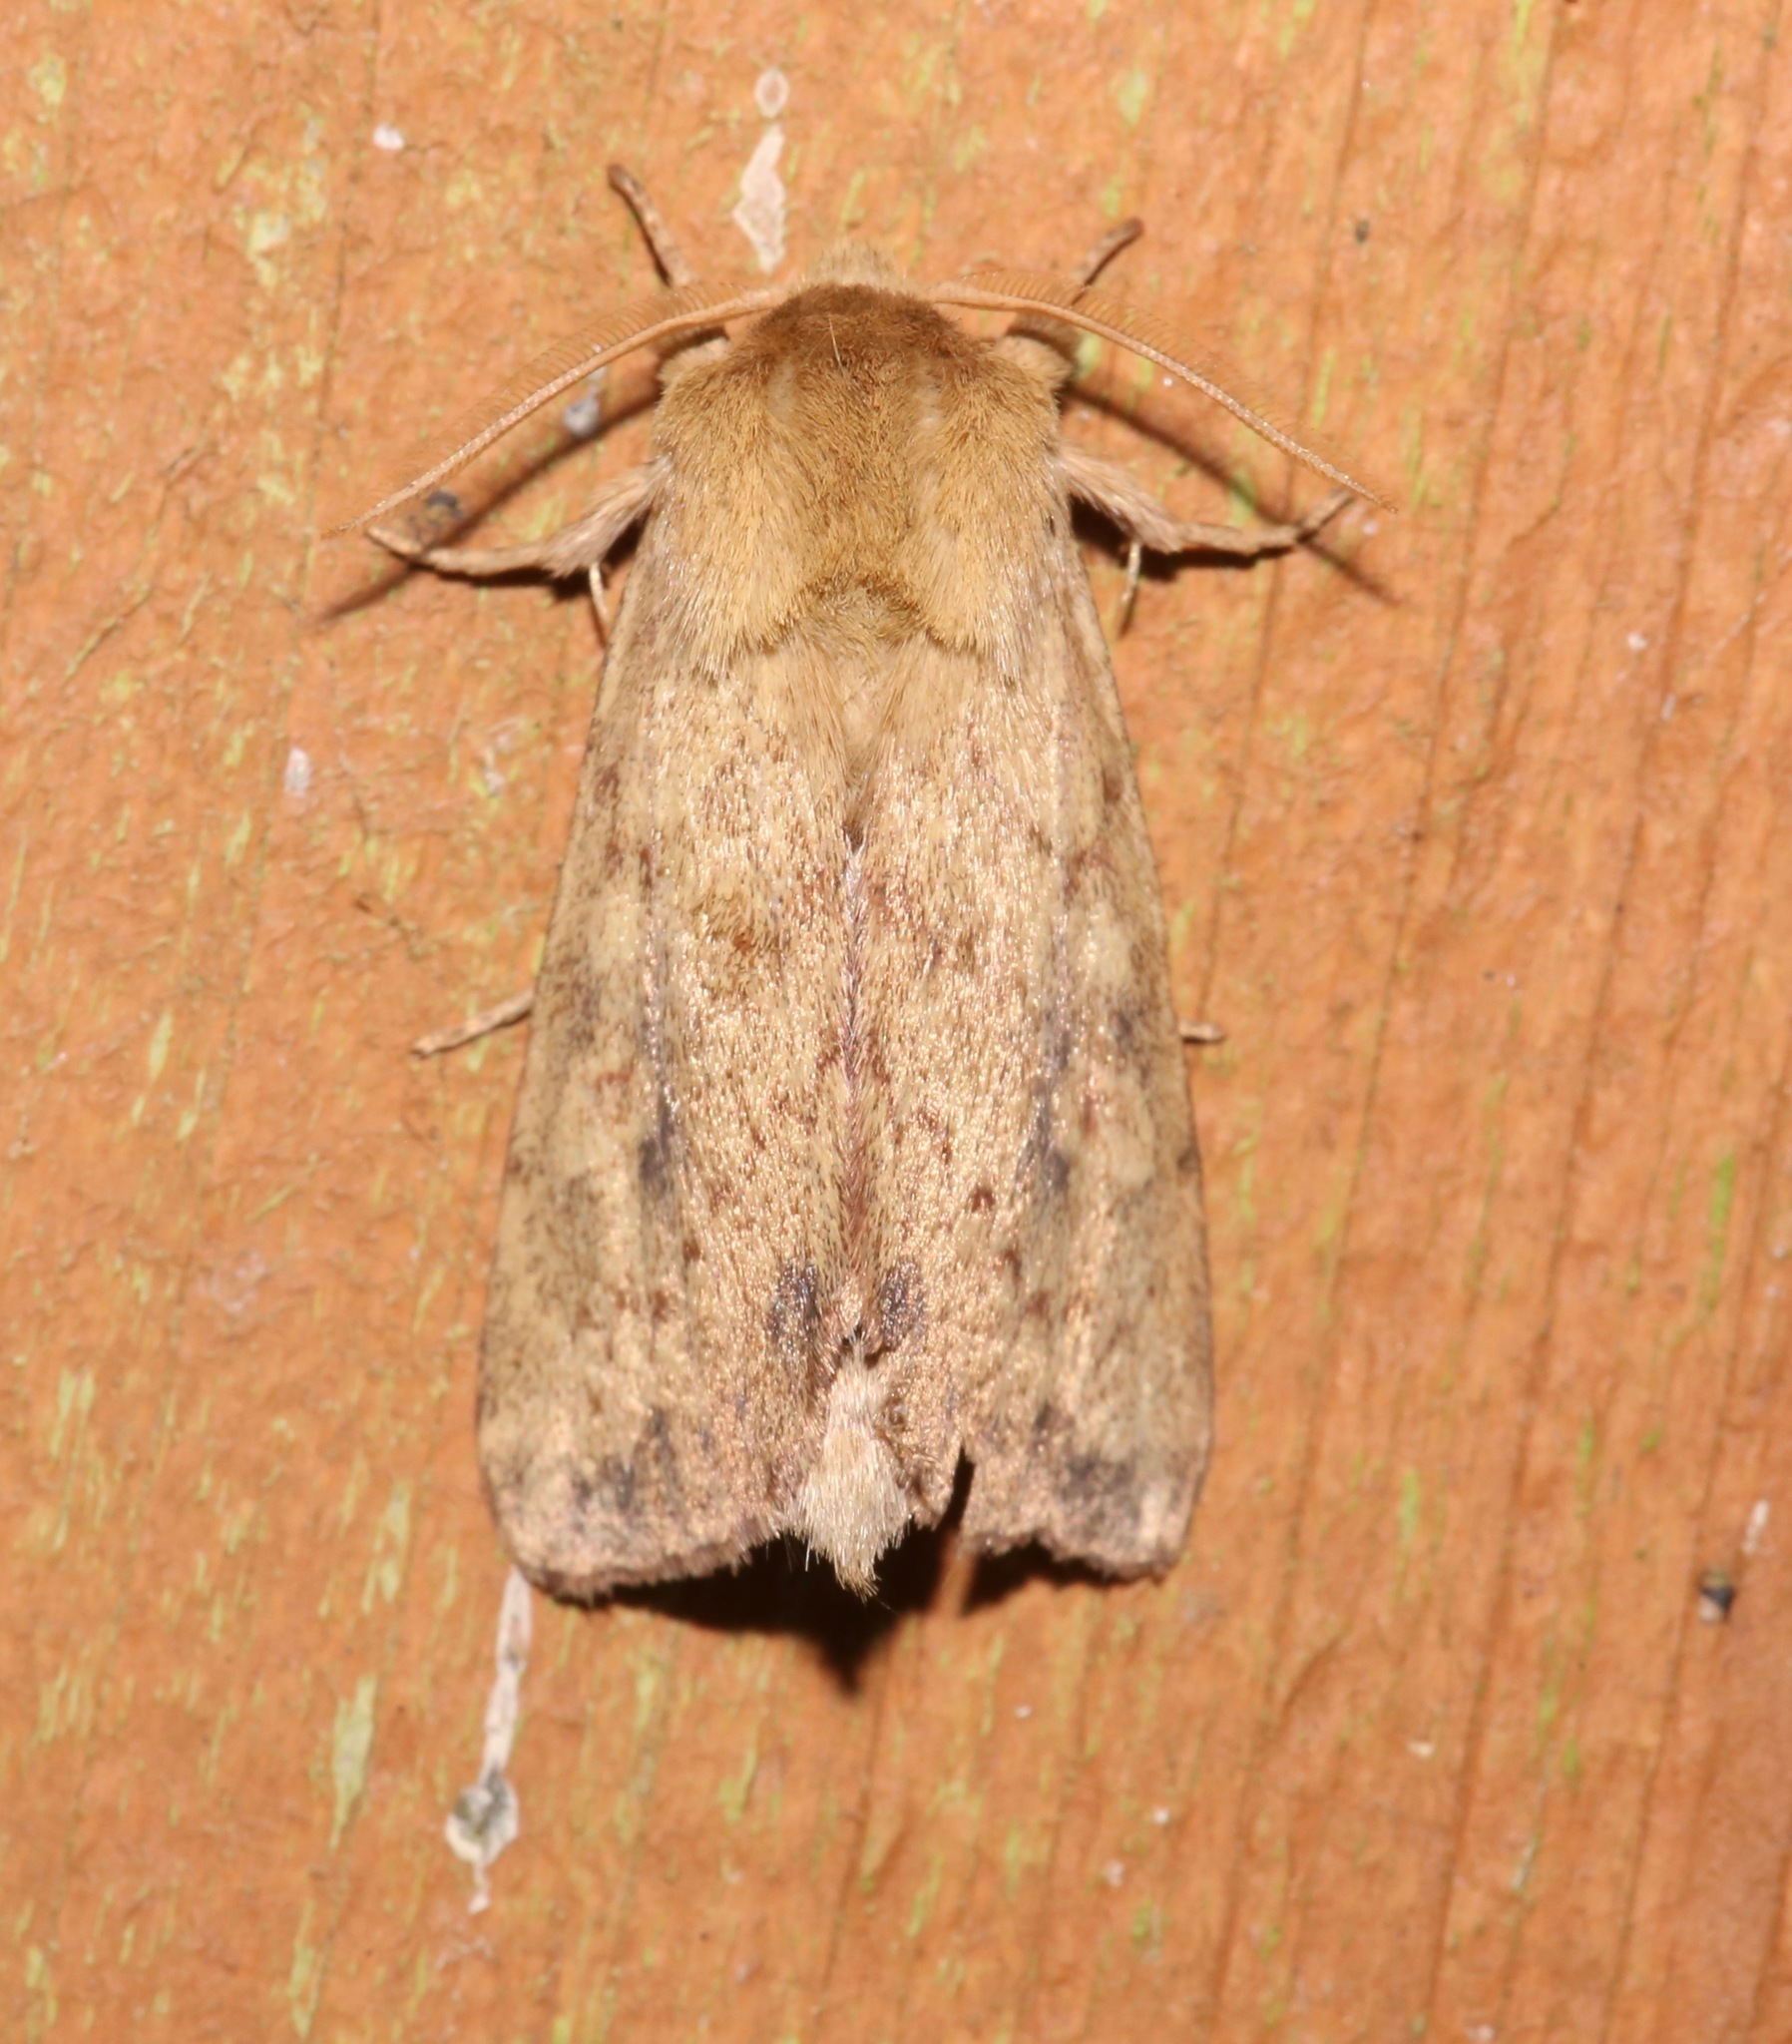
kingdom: Animalia
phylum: Arthropoda
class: Insecta
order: Lepidoptera
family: Noctuidae
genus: Bellura
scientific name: Bellura gortynoides
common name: White-tailed diver moth
